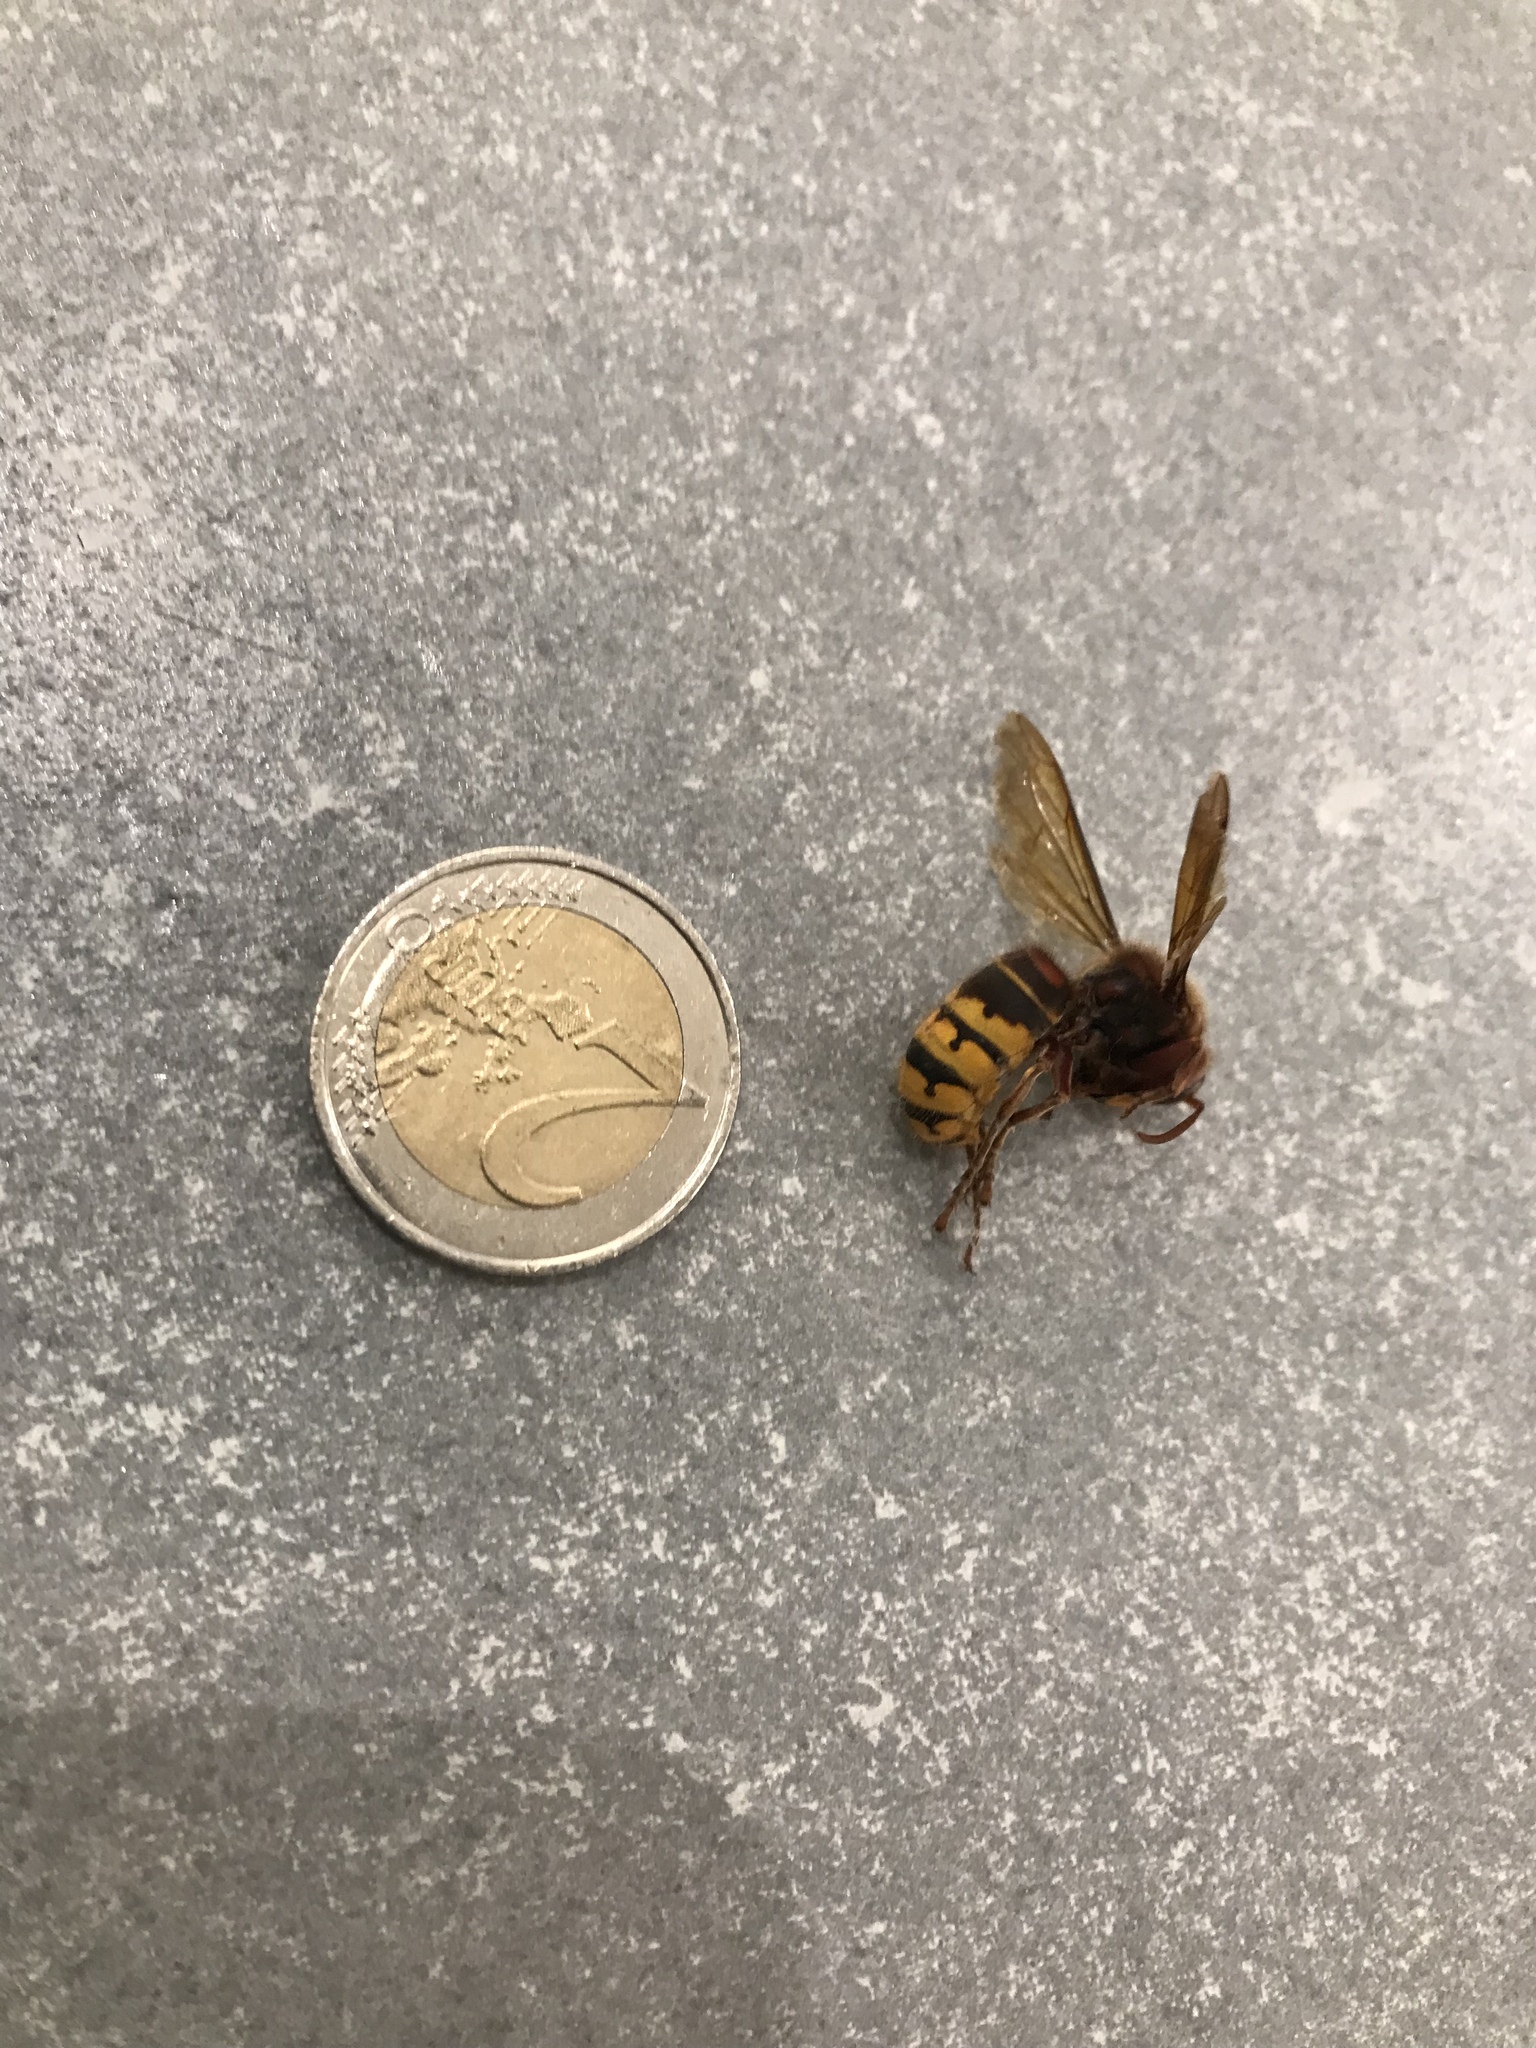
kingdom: Animalia
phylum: Arthropoda
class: Insecta
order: Hymenoptera
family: Vespidae
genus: Vespa
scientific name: Vespa crabro
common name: Hornet
